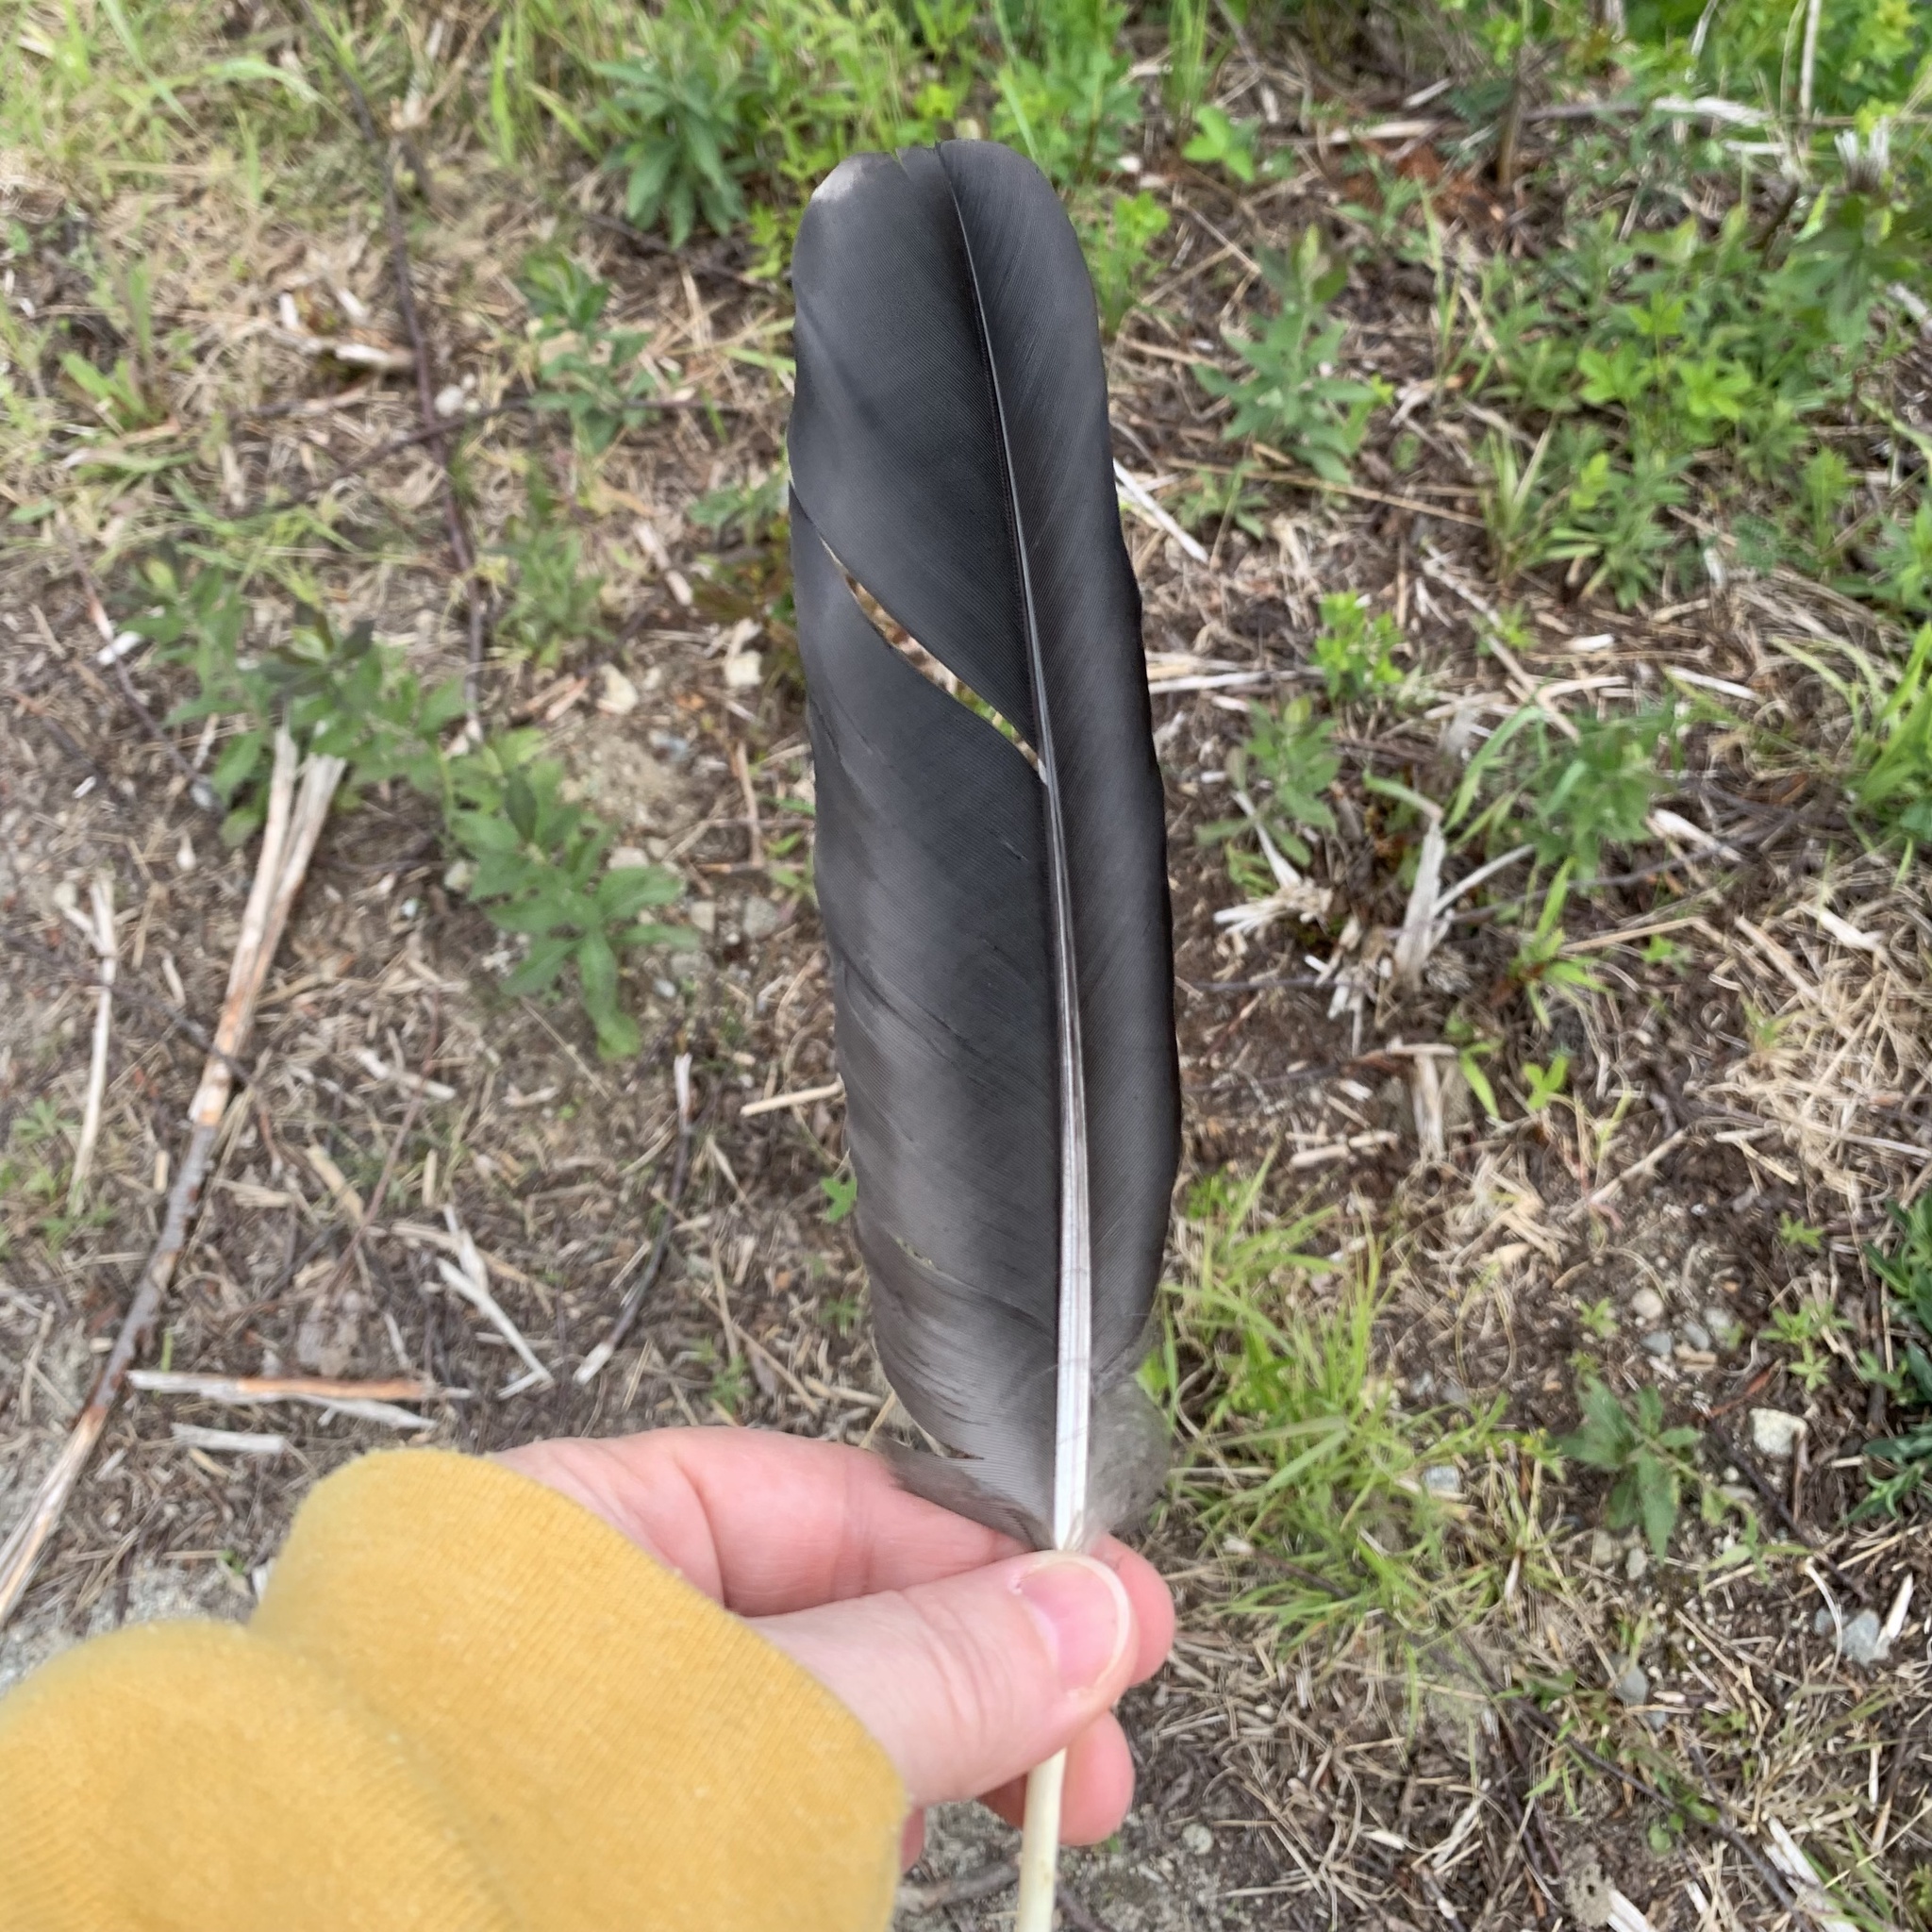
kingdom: Animalia
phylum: Chordata
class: Aves
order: Passeriformes
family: Corvidae
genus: Corvus
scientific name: Corvus corax
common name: Common raven
